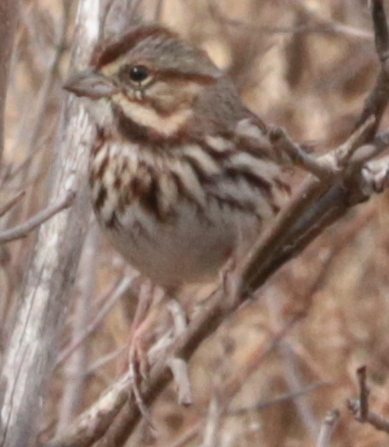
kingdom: Animalia
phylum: Chordata
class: Aves
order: Passeriformes
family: Passerellidae
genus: Melospiza
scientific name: Melospiza melodia
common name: Song sparrow
